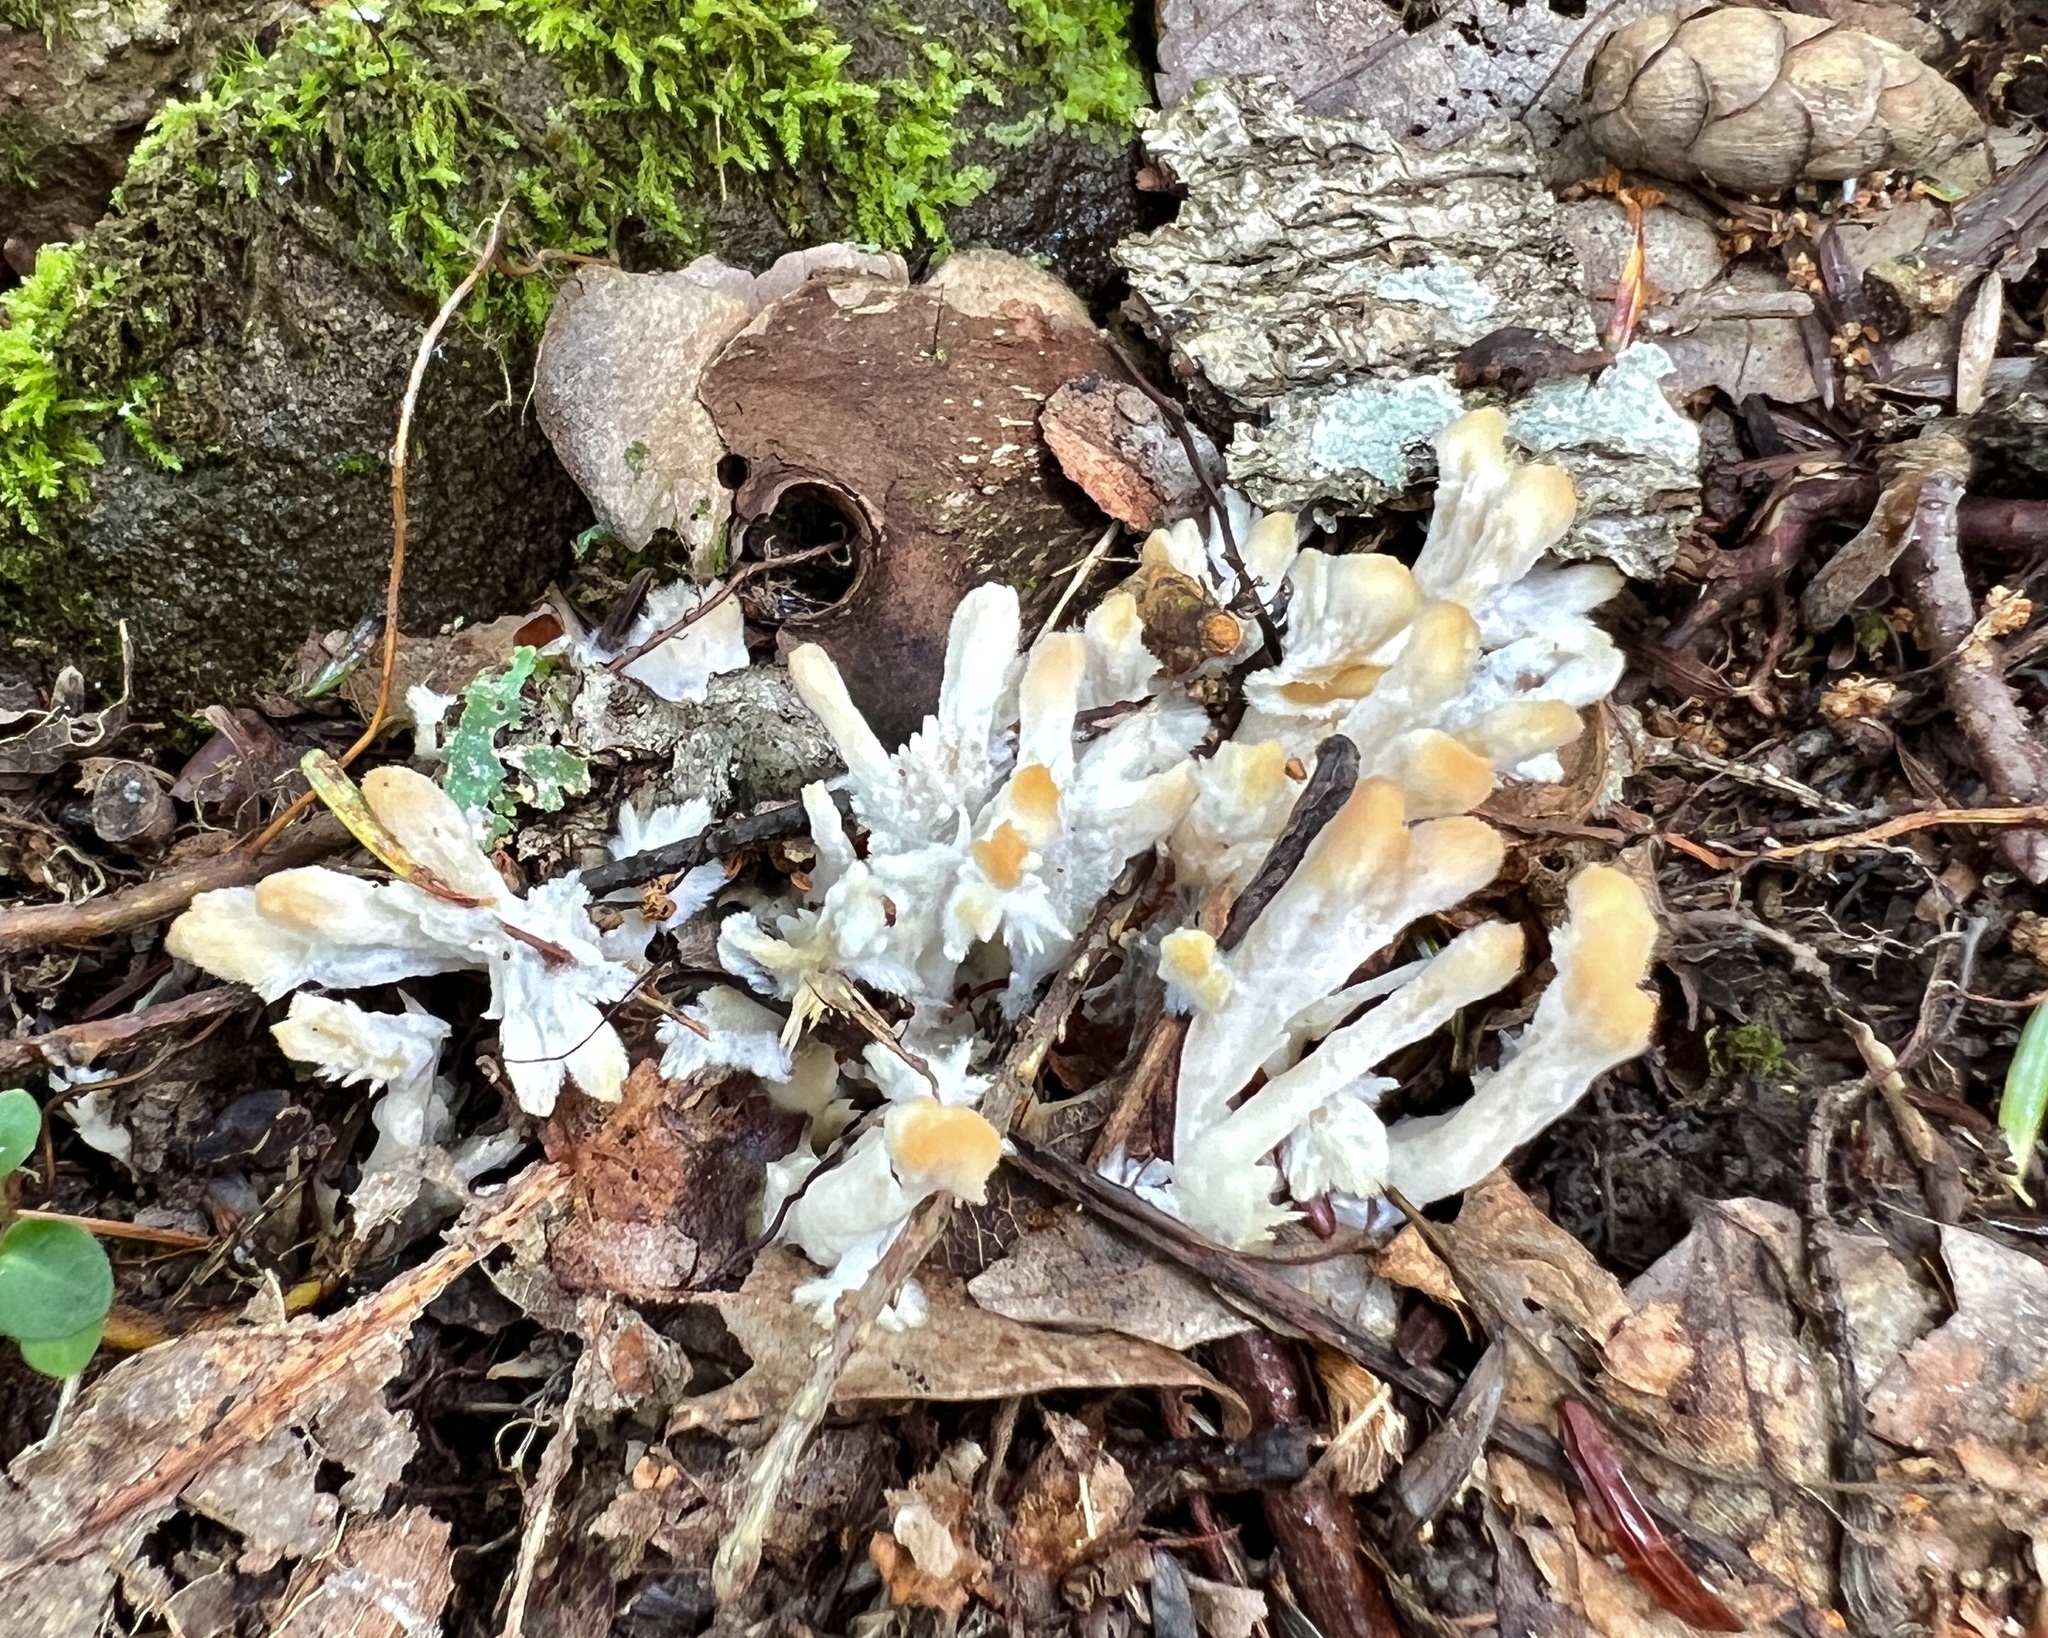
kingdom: Fungi
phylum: Basidiomycota
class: Agaricomycetes
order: Sebacinales
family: Sebacinaceae
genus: Sebacina
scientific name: Sebacina schweinitzii
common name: Jellied false coral fungus
